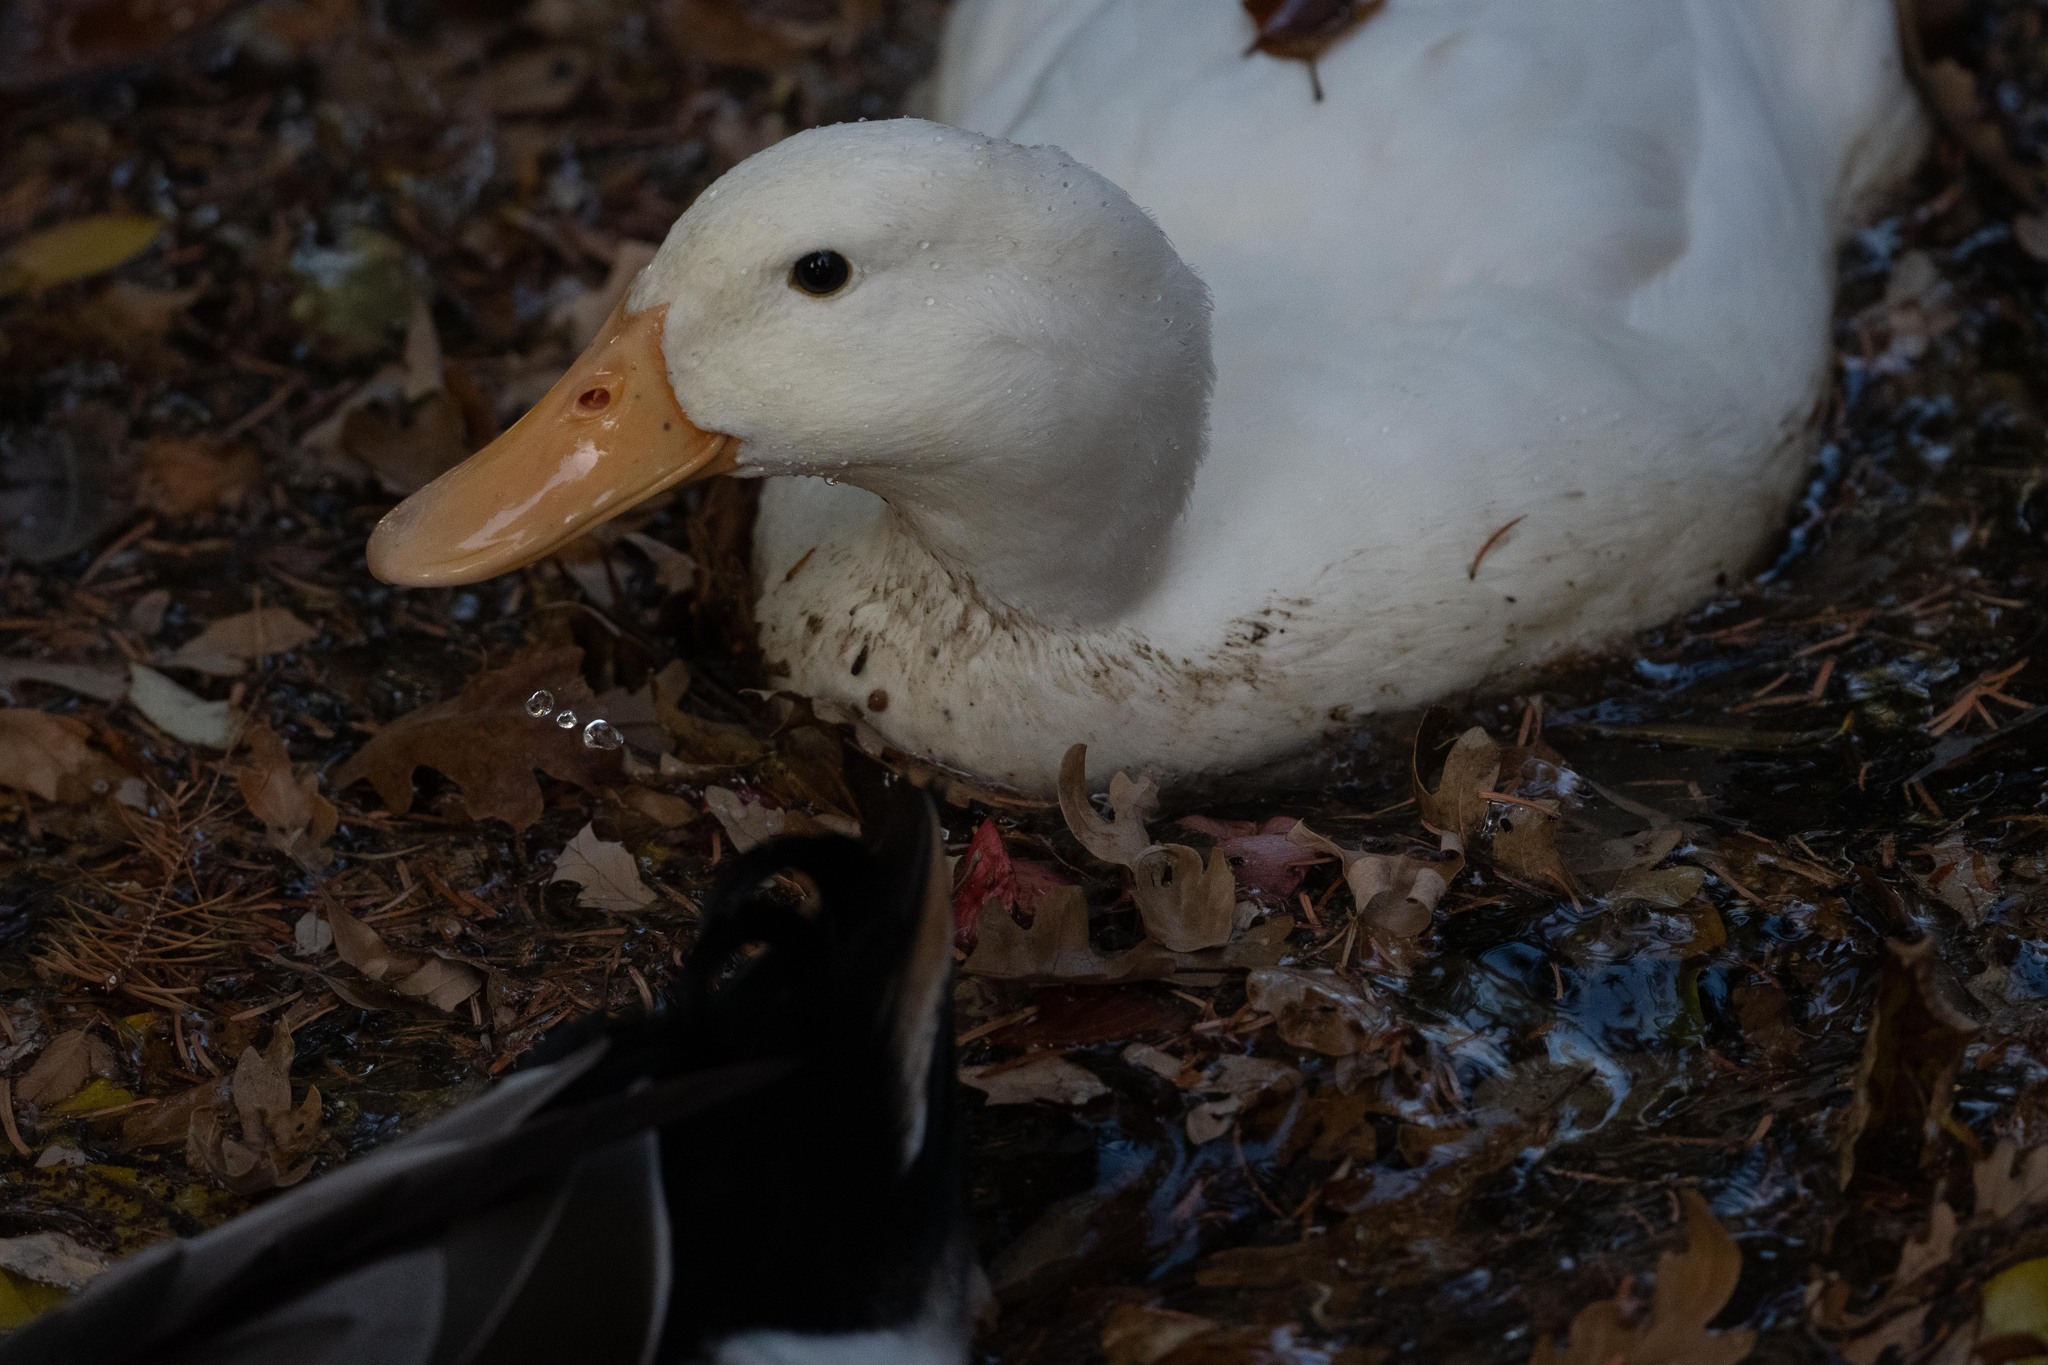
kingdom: Animalia
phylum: Chordata
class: Aves
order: Anseriformes
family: Anatidae
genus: Anas
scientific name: Anas platyrhynchos
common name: Mallard
